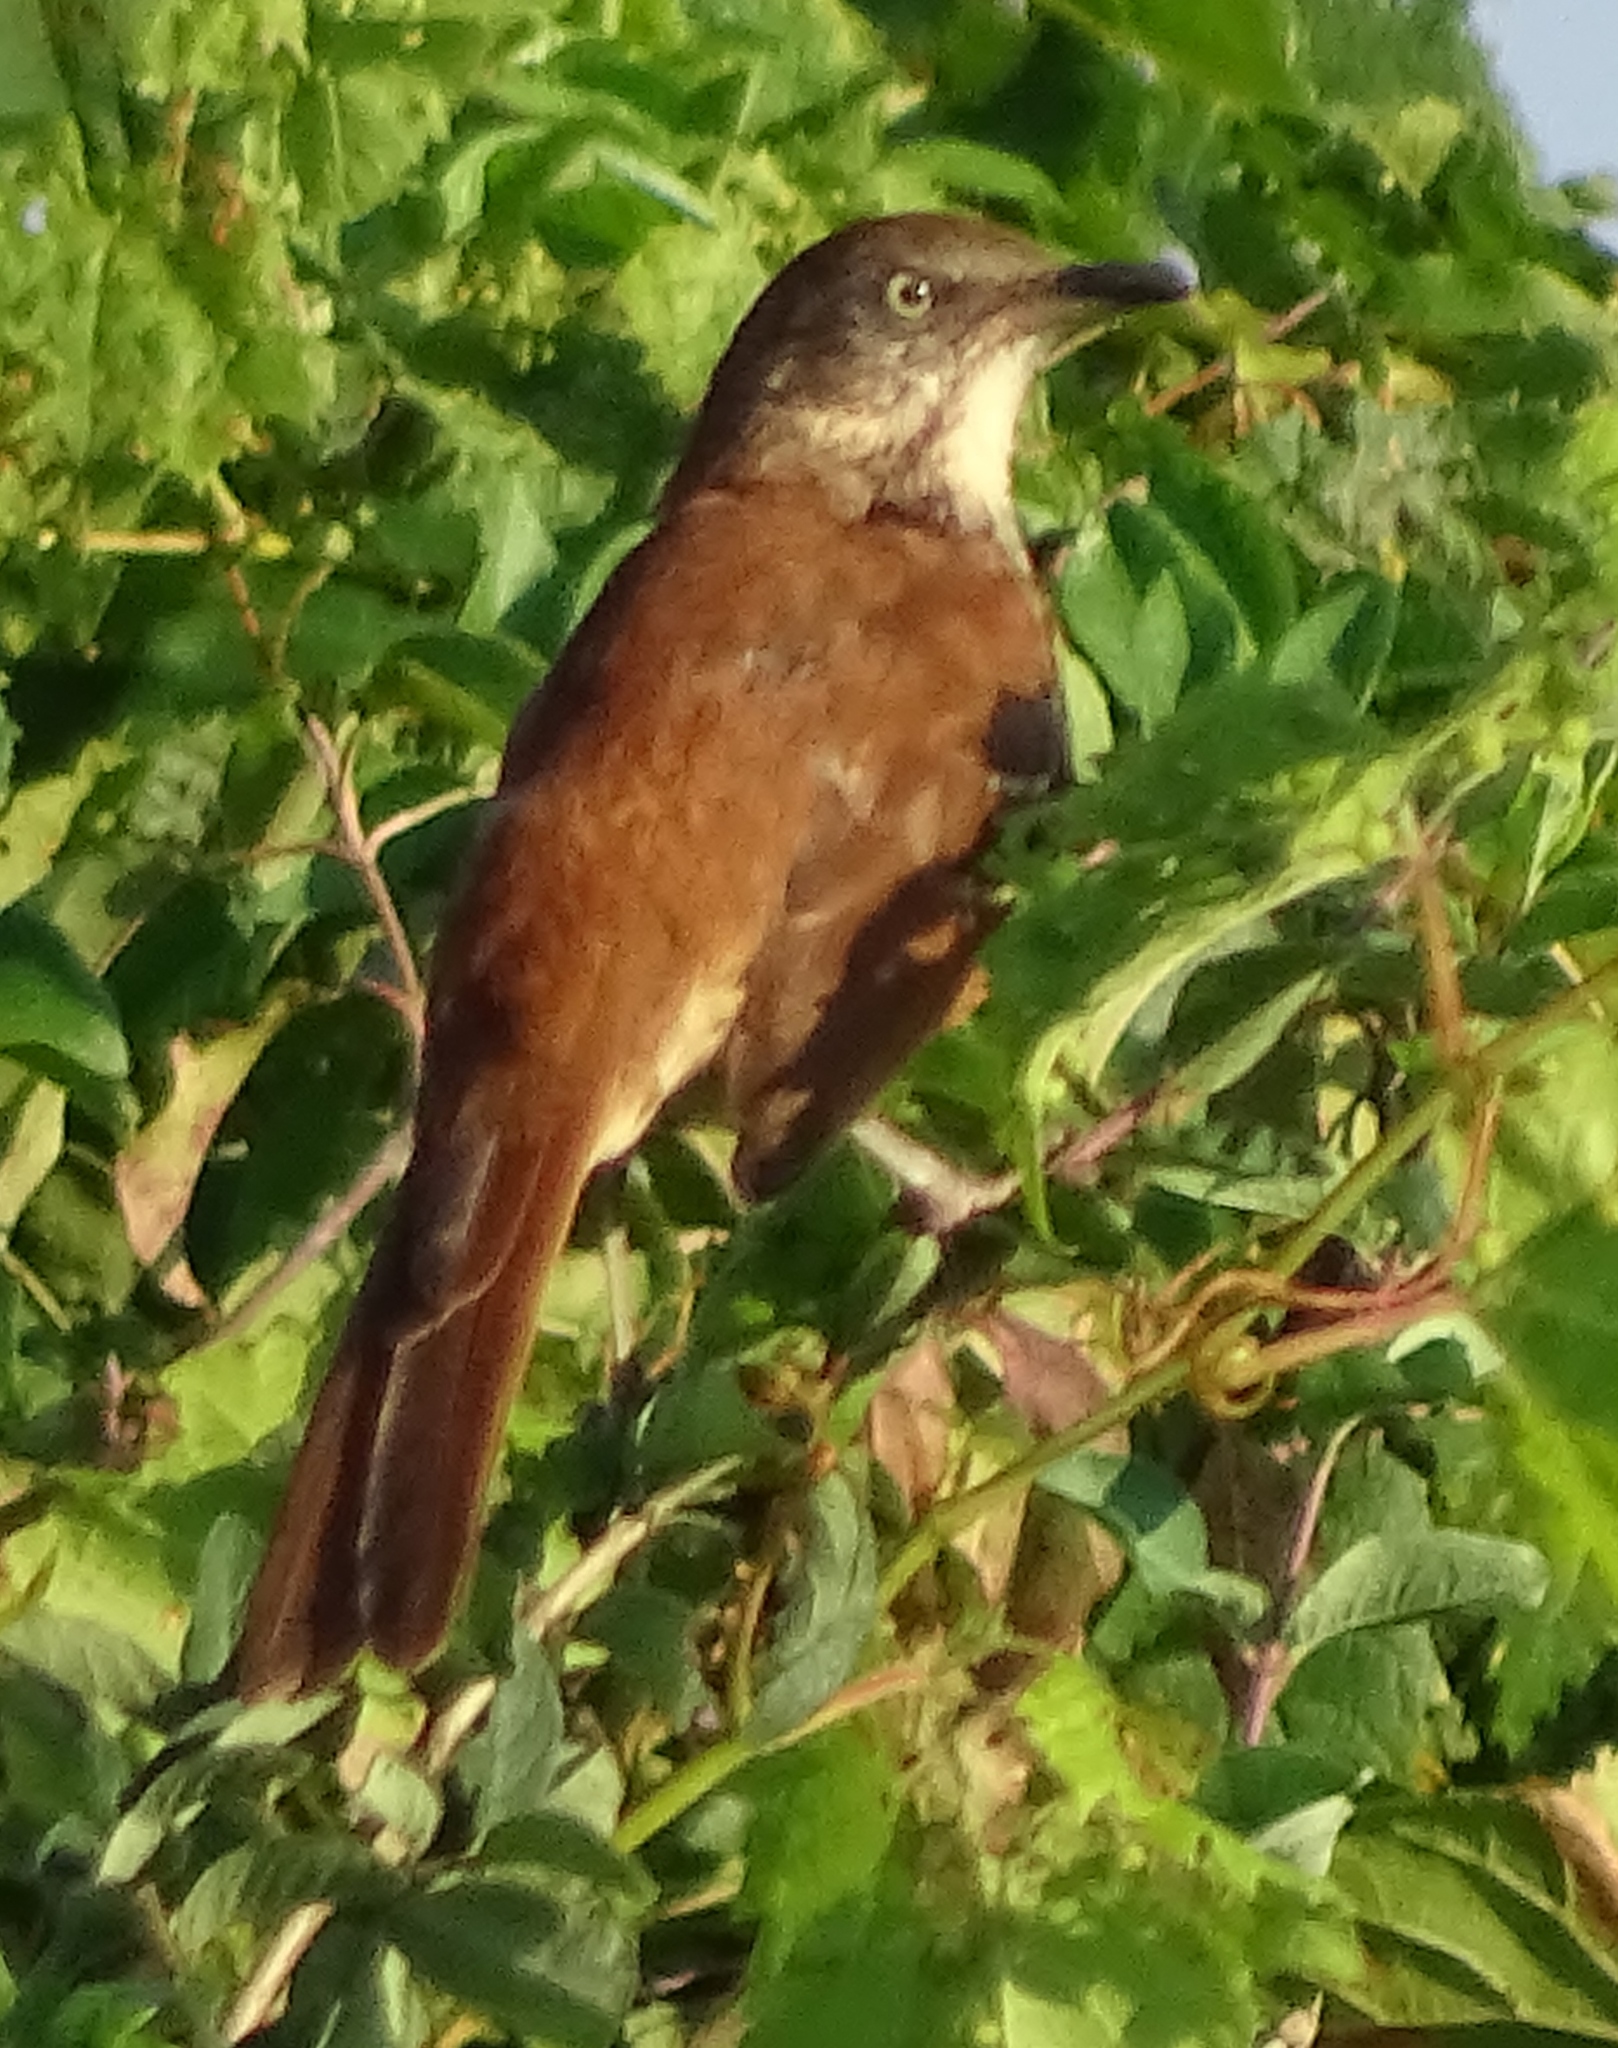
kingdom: Animalia
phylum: Chordata
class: Aves
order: Passeriformes
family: Mimidae
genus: Toxostoma
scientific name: Toxostoma rufum
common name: Brown thrasher
